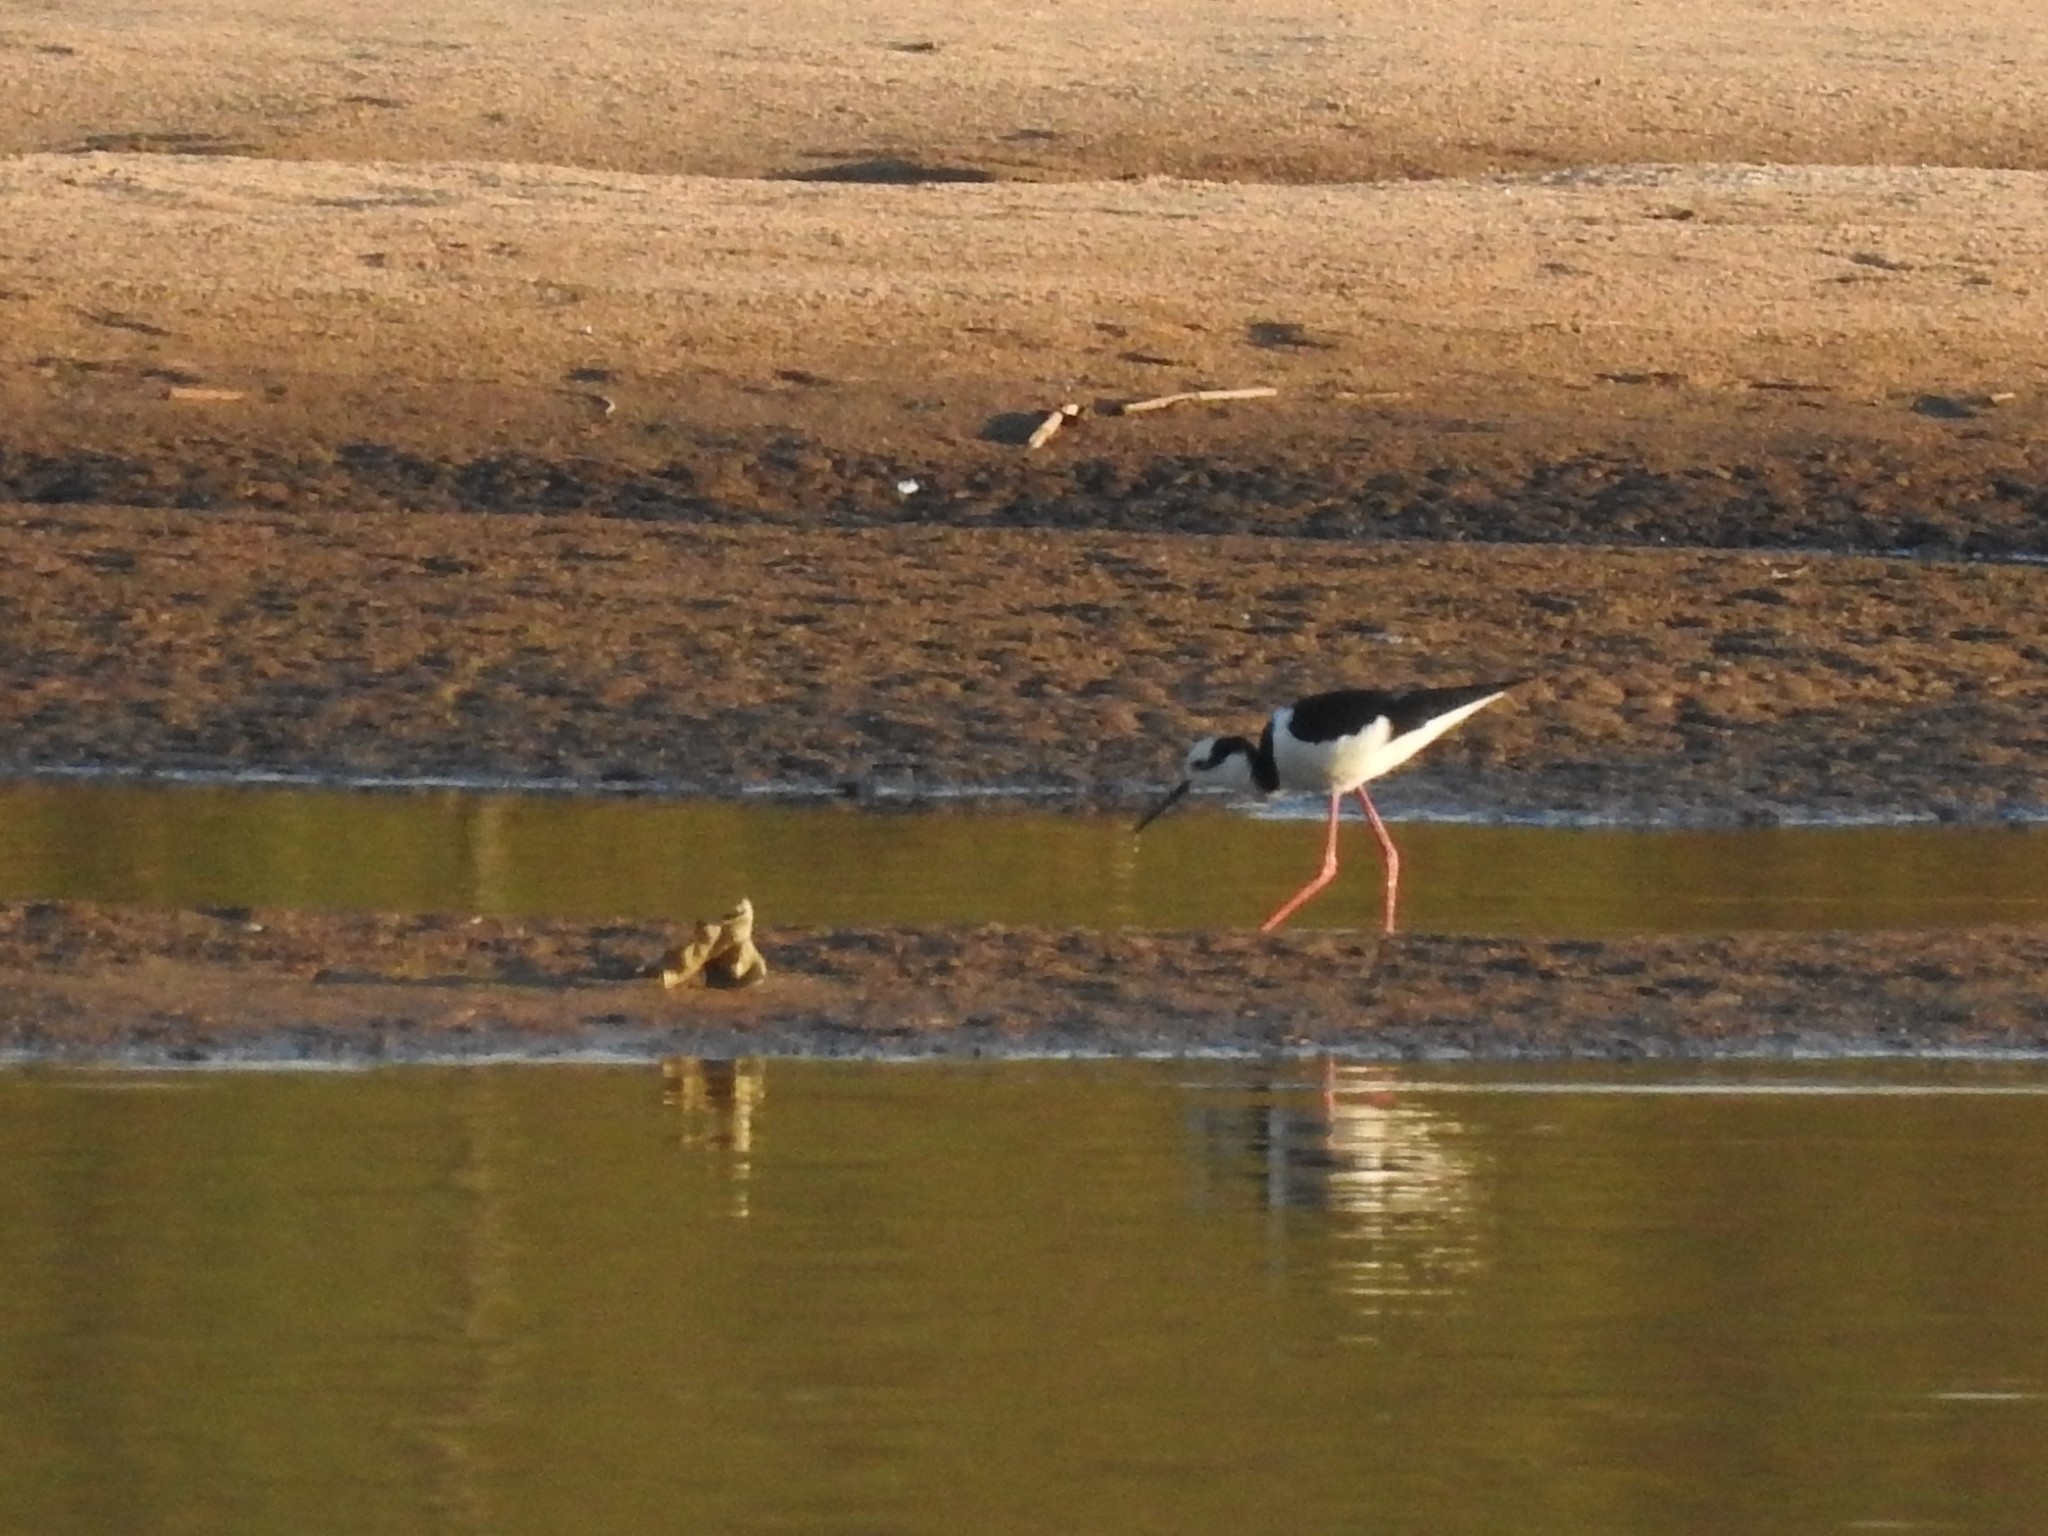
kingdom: Animalia
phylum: Chordata
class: Aves
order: Charadriiformes
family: Recurvirostridae
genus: Himantopus
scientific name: Himantopus mexicanus
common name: Black-necked stilt
